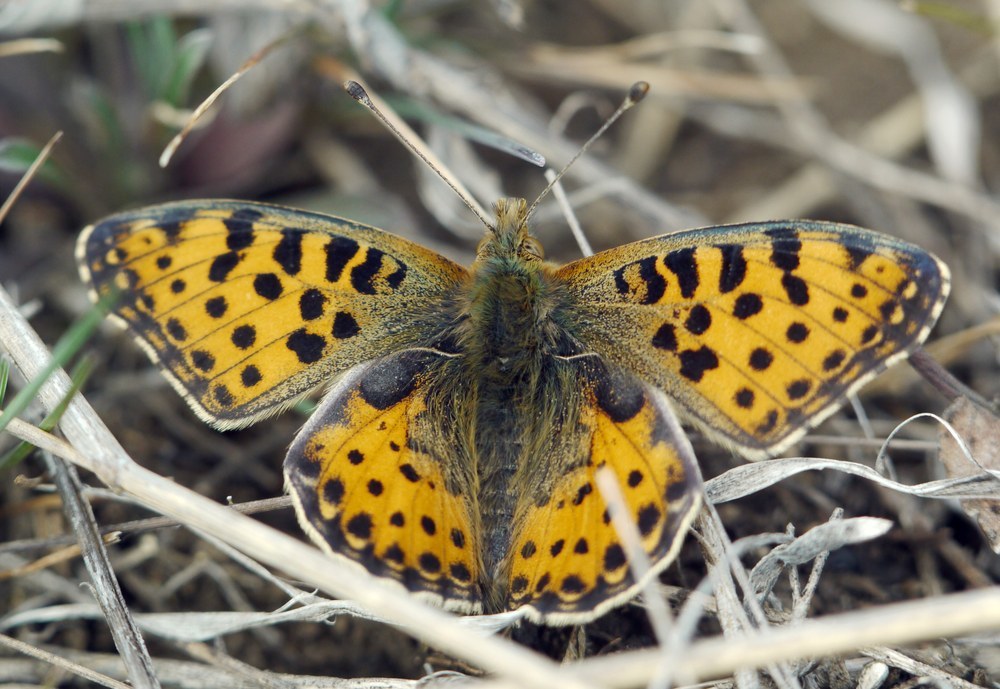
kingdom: Animalia
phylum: Arthropoda
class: Insecta
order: Lepidoptera
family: Nymphalidae
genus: Issoria
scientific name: Issoria lathonia
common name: Queen of spain fritillary
